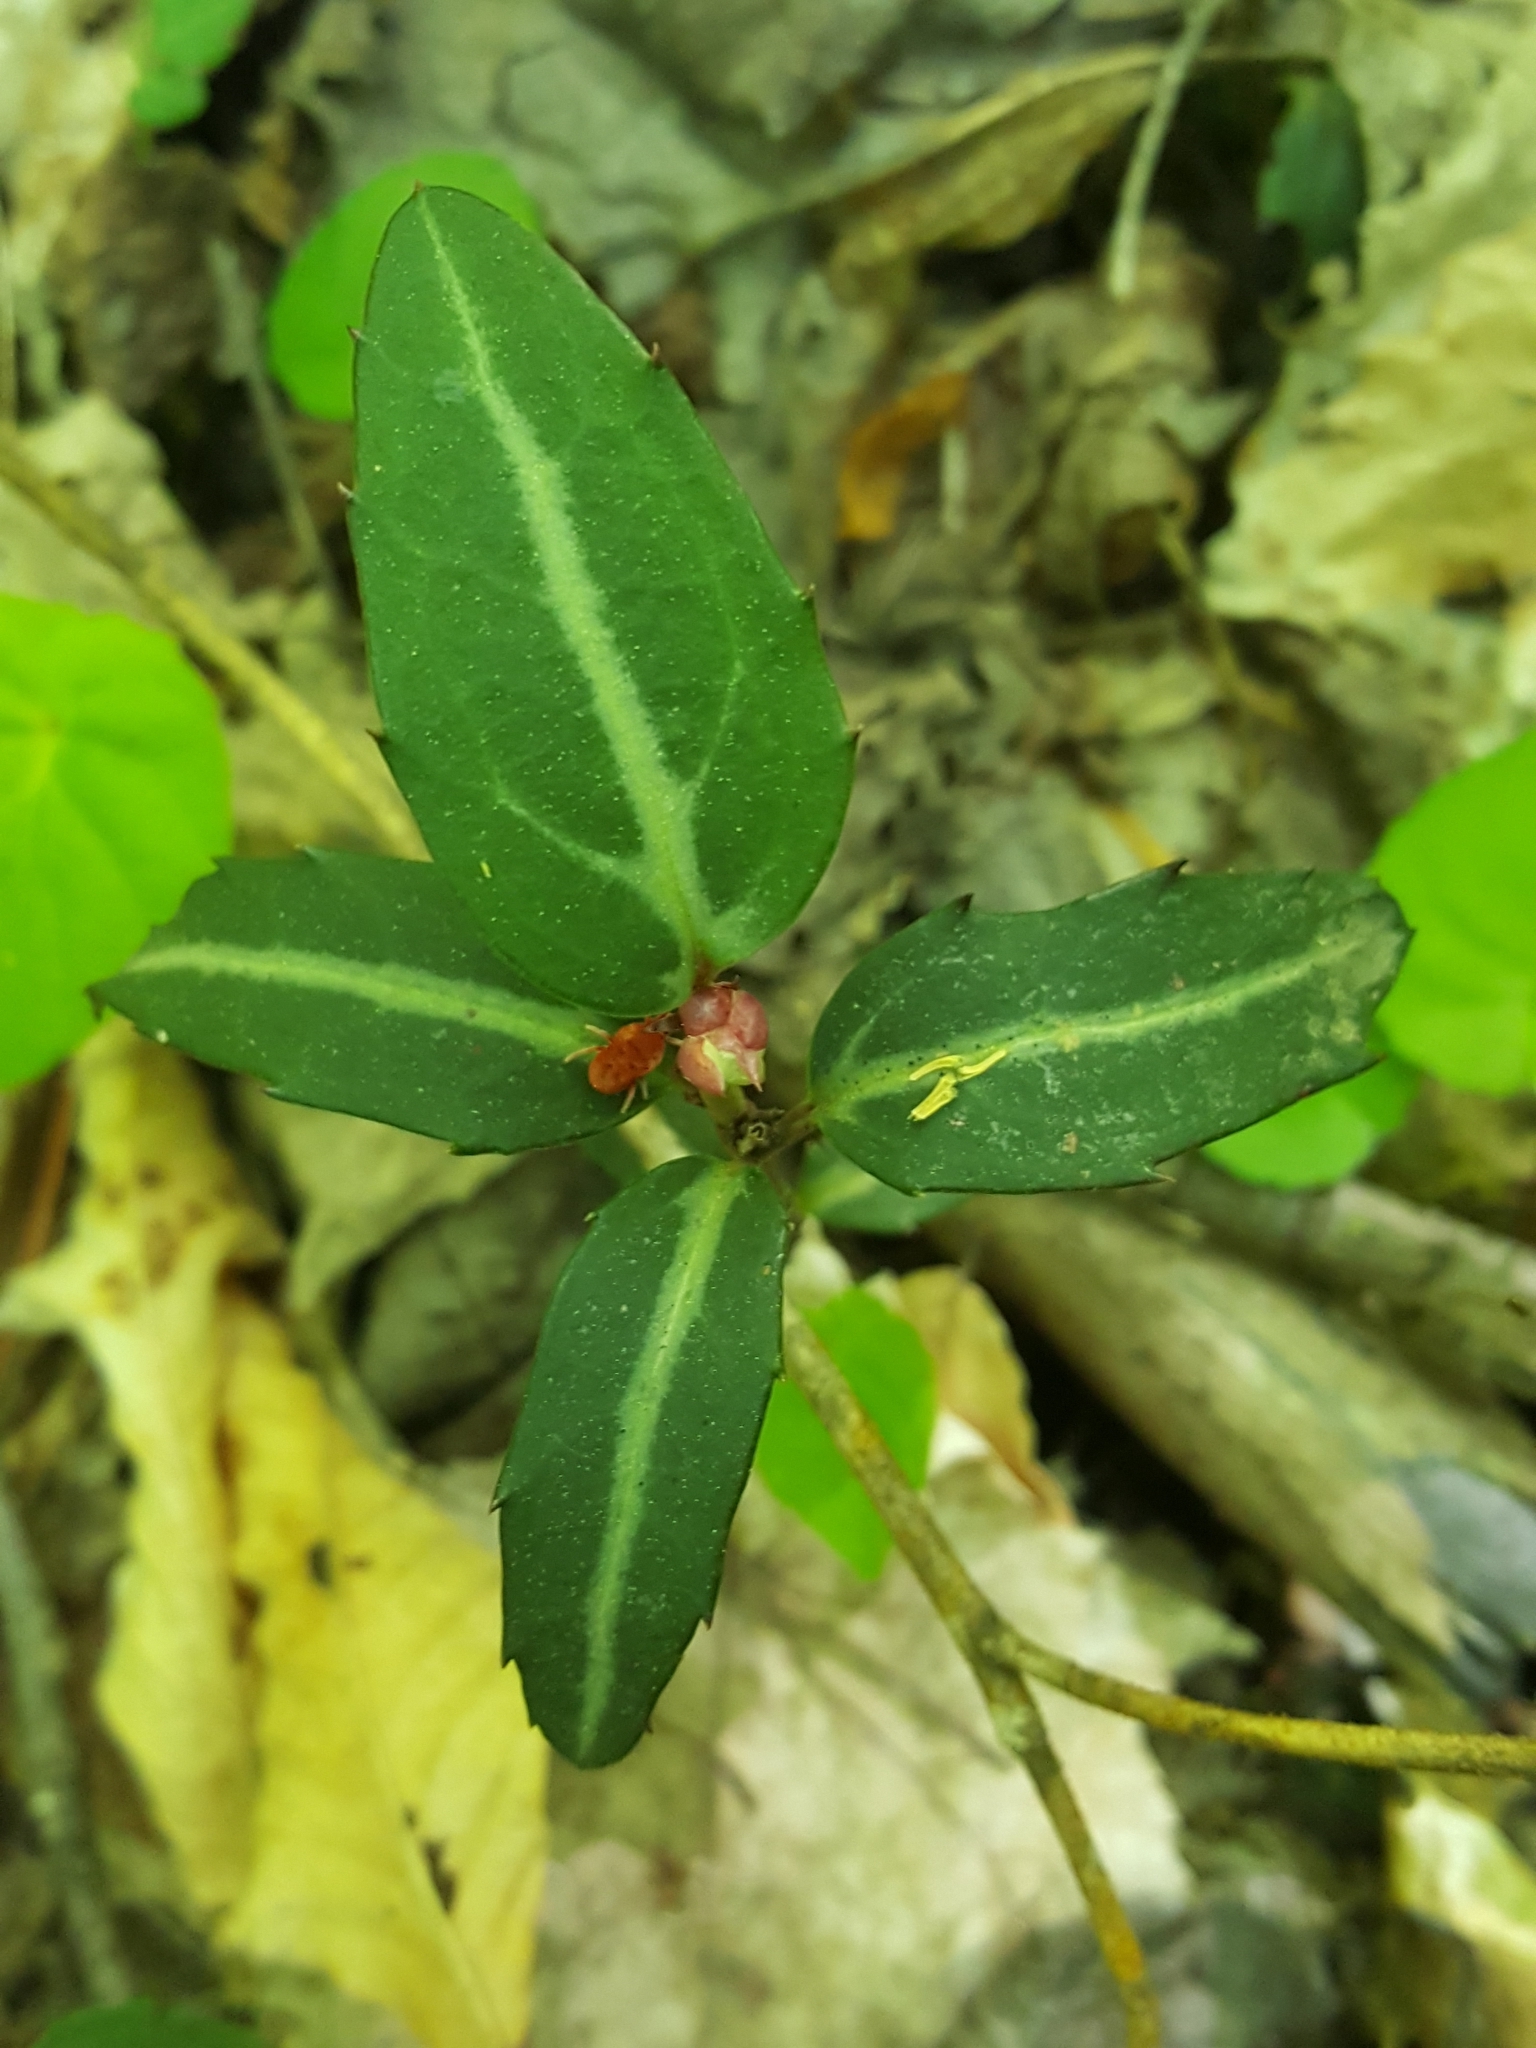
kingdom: Plantae
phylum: Tracheophyta
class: Magnoliopsida
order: Ericales
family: Ericaceae
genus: Chimaphila
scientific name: Chimaphila maculata
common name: Spotted pipsissewa
